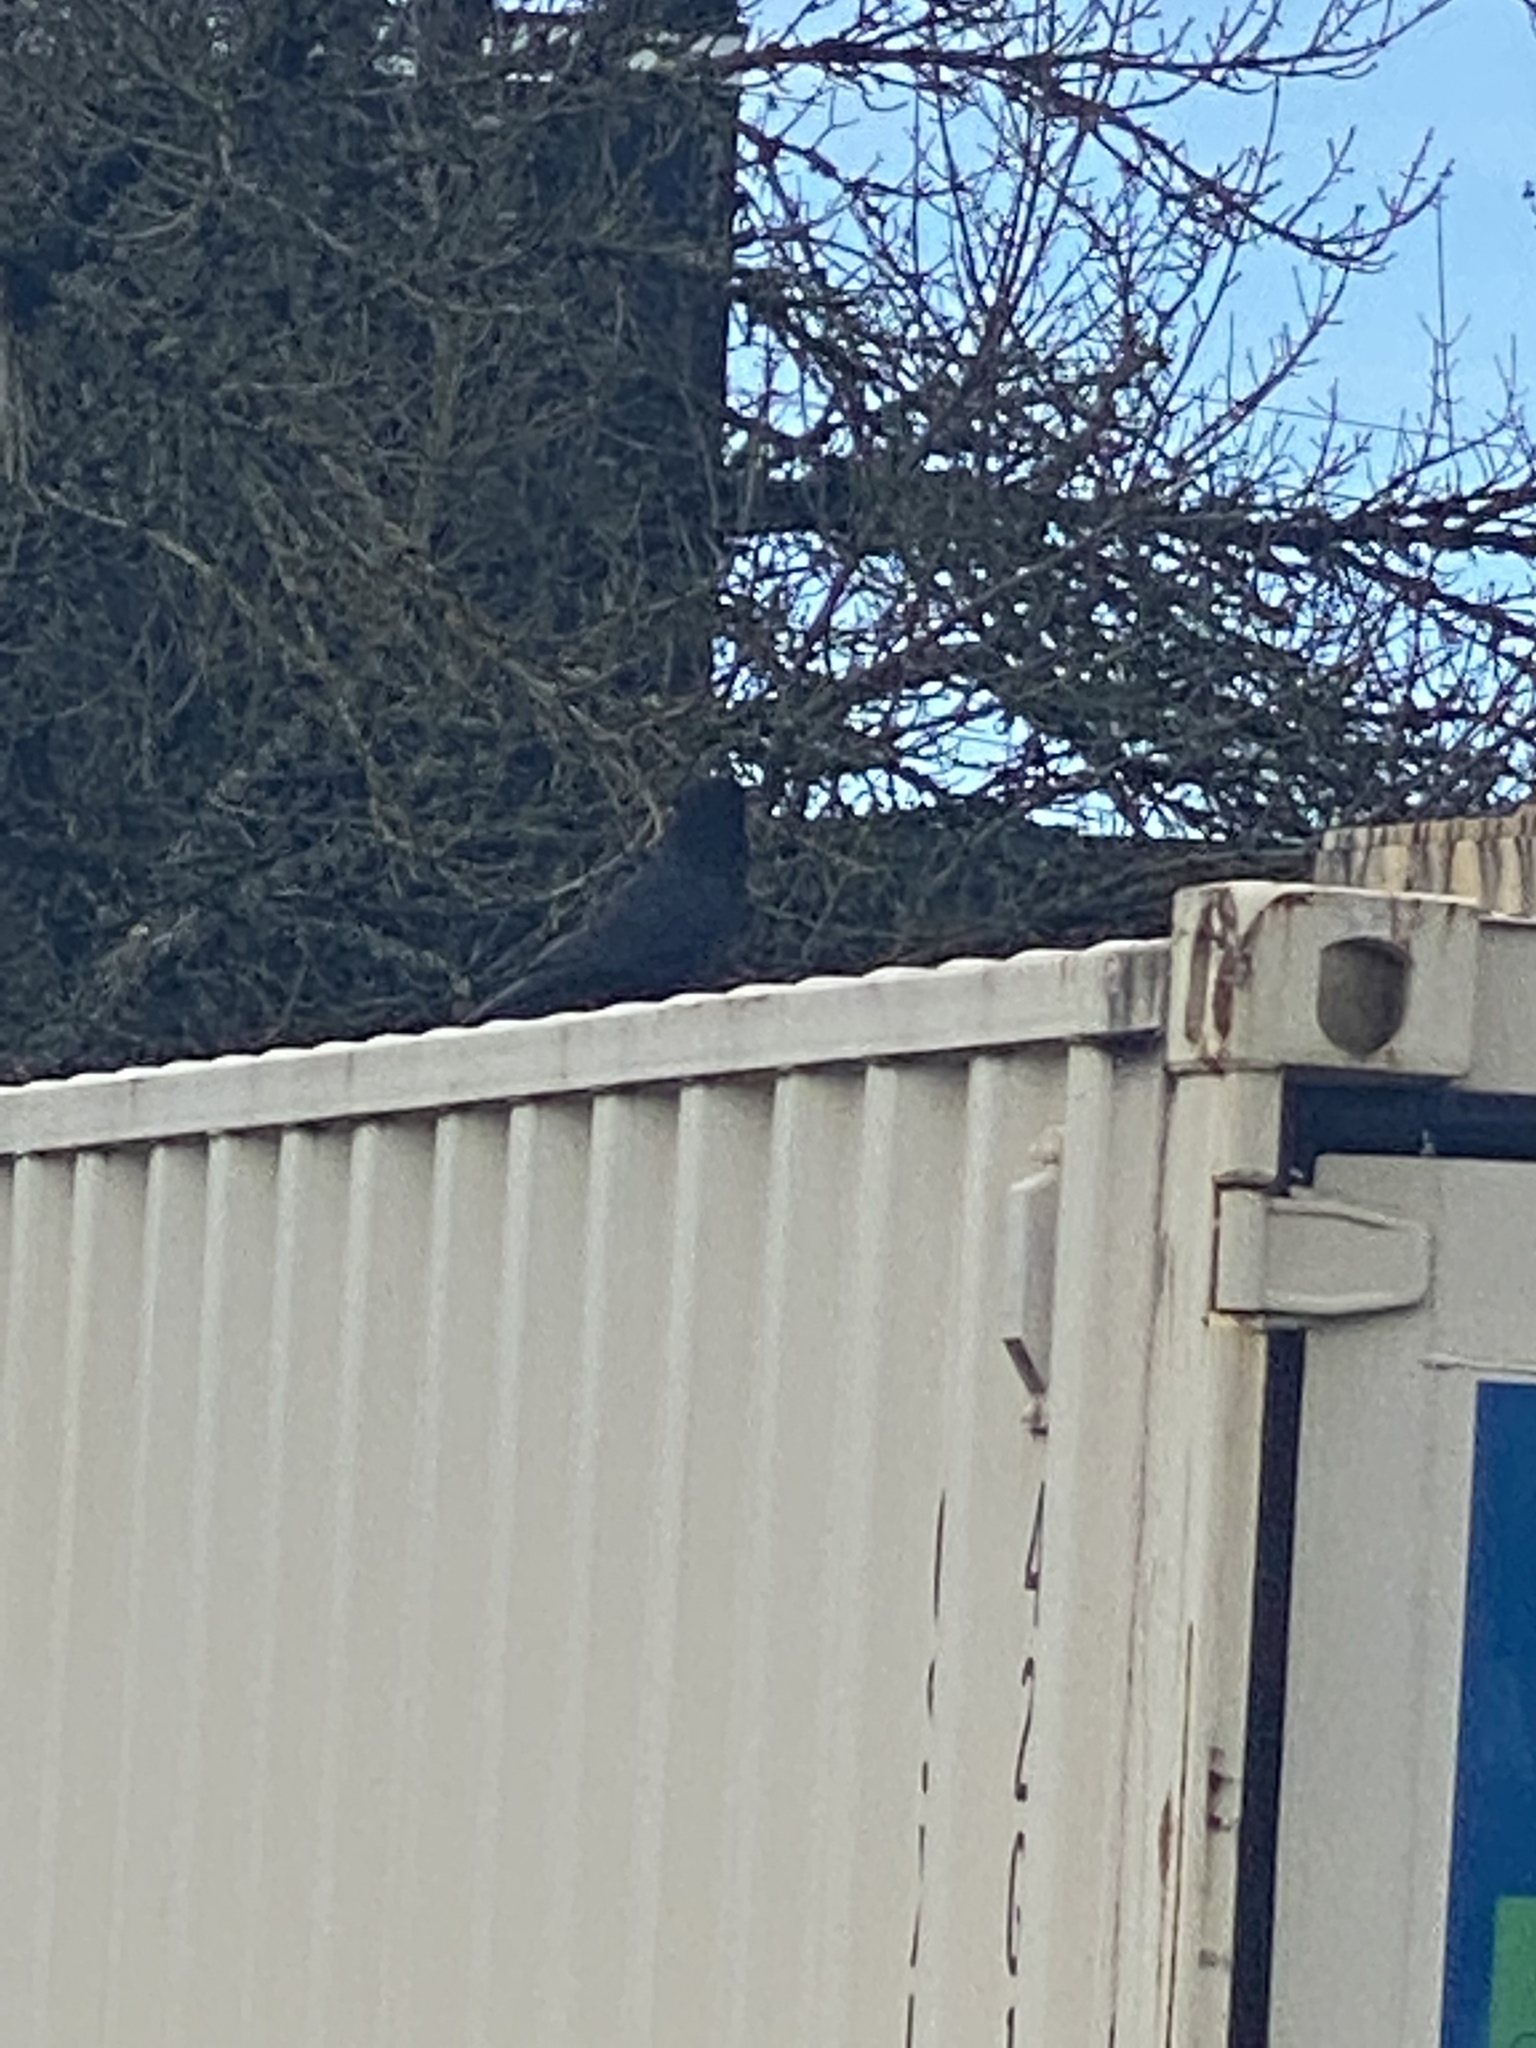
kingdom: Animalia
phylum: Chordata
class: Aves
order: Passeriformes
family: Corvidae
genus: Corvus
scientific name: Corvus brachyrhynchos
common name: American crow
